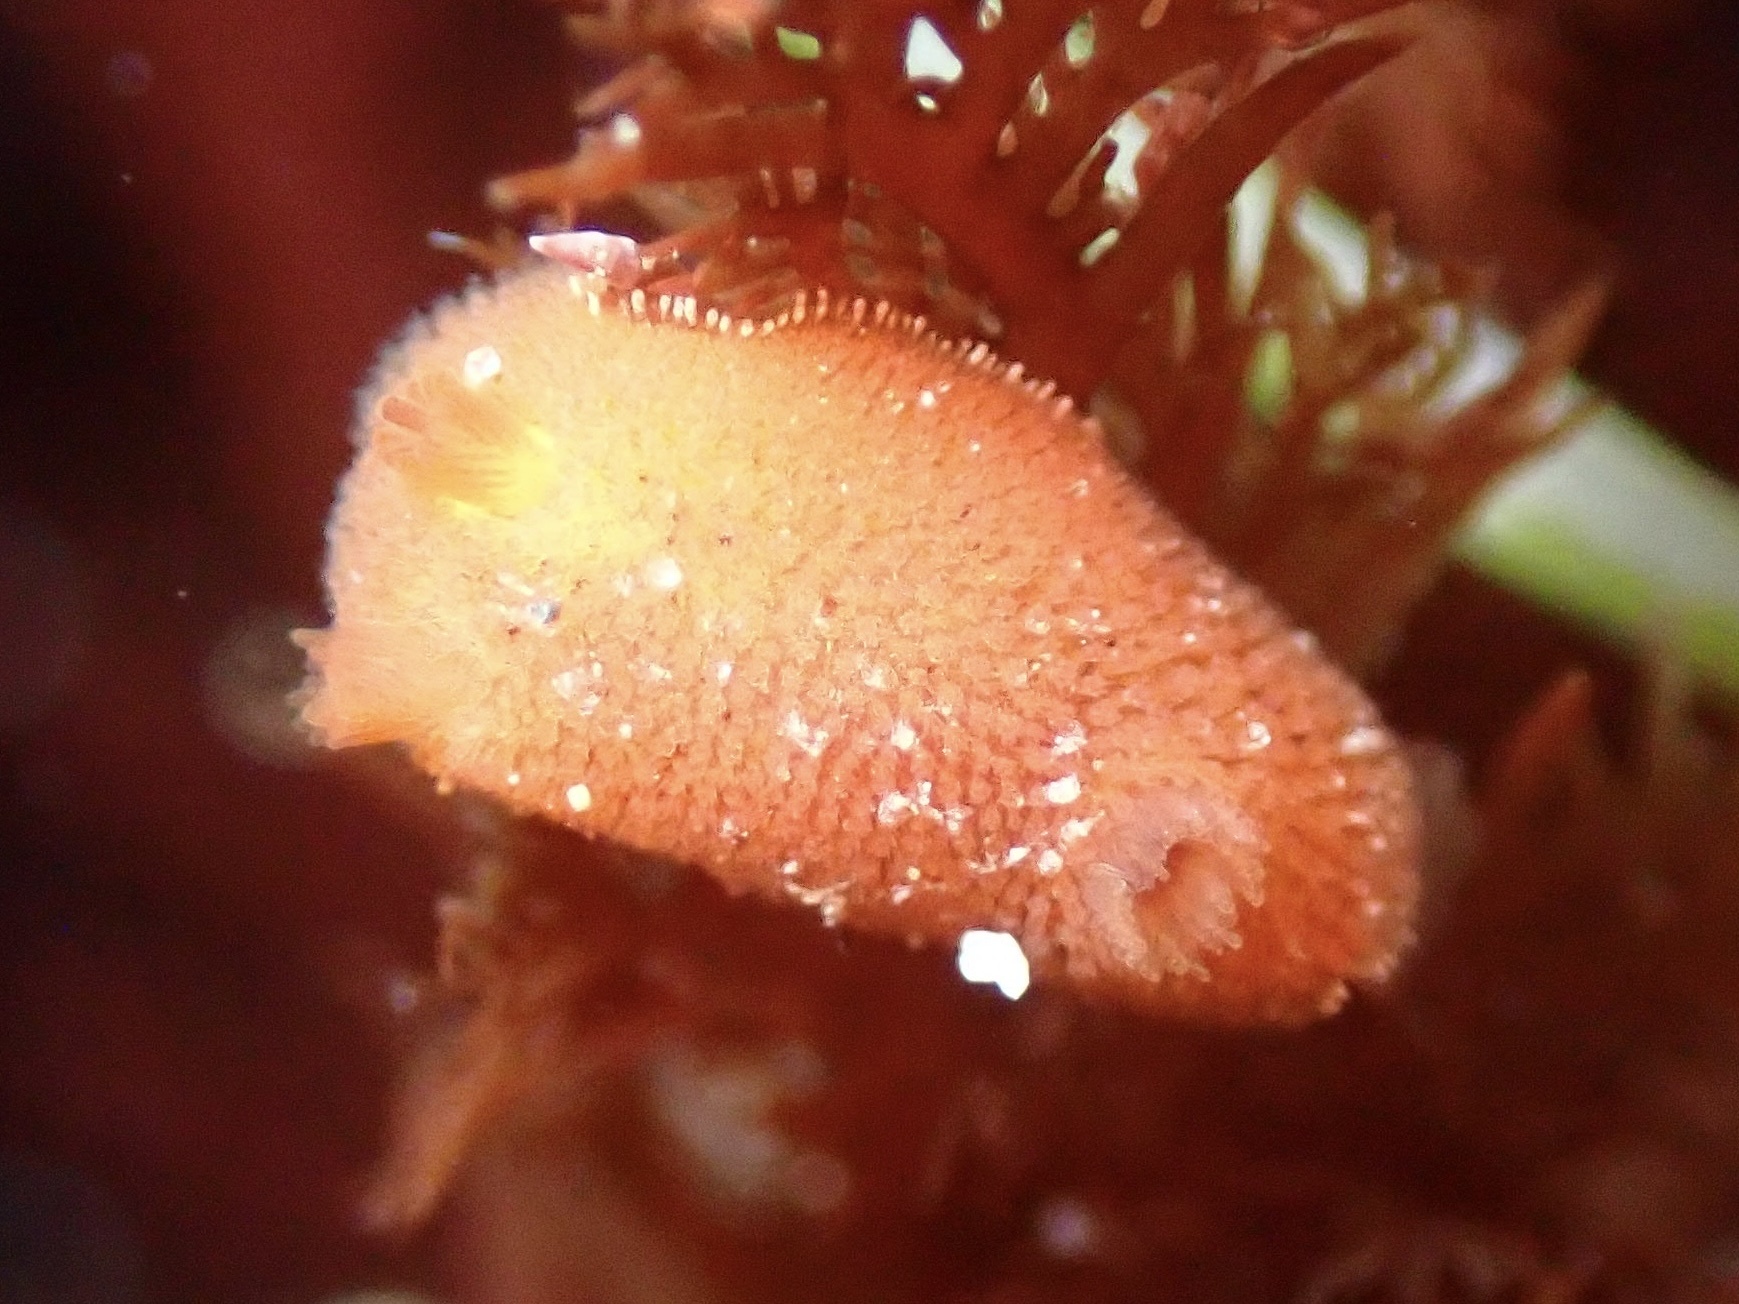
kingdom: Animalia
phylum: Mollusca
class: Gastropoda
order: Nudibranchia
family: Discodorididae
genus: Rostanga
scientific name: Rostanga pulchra
